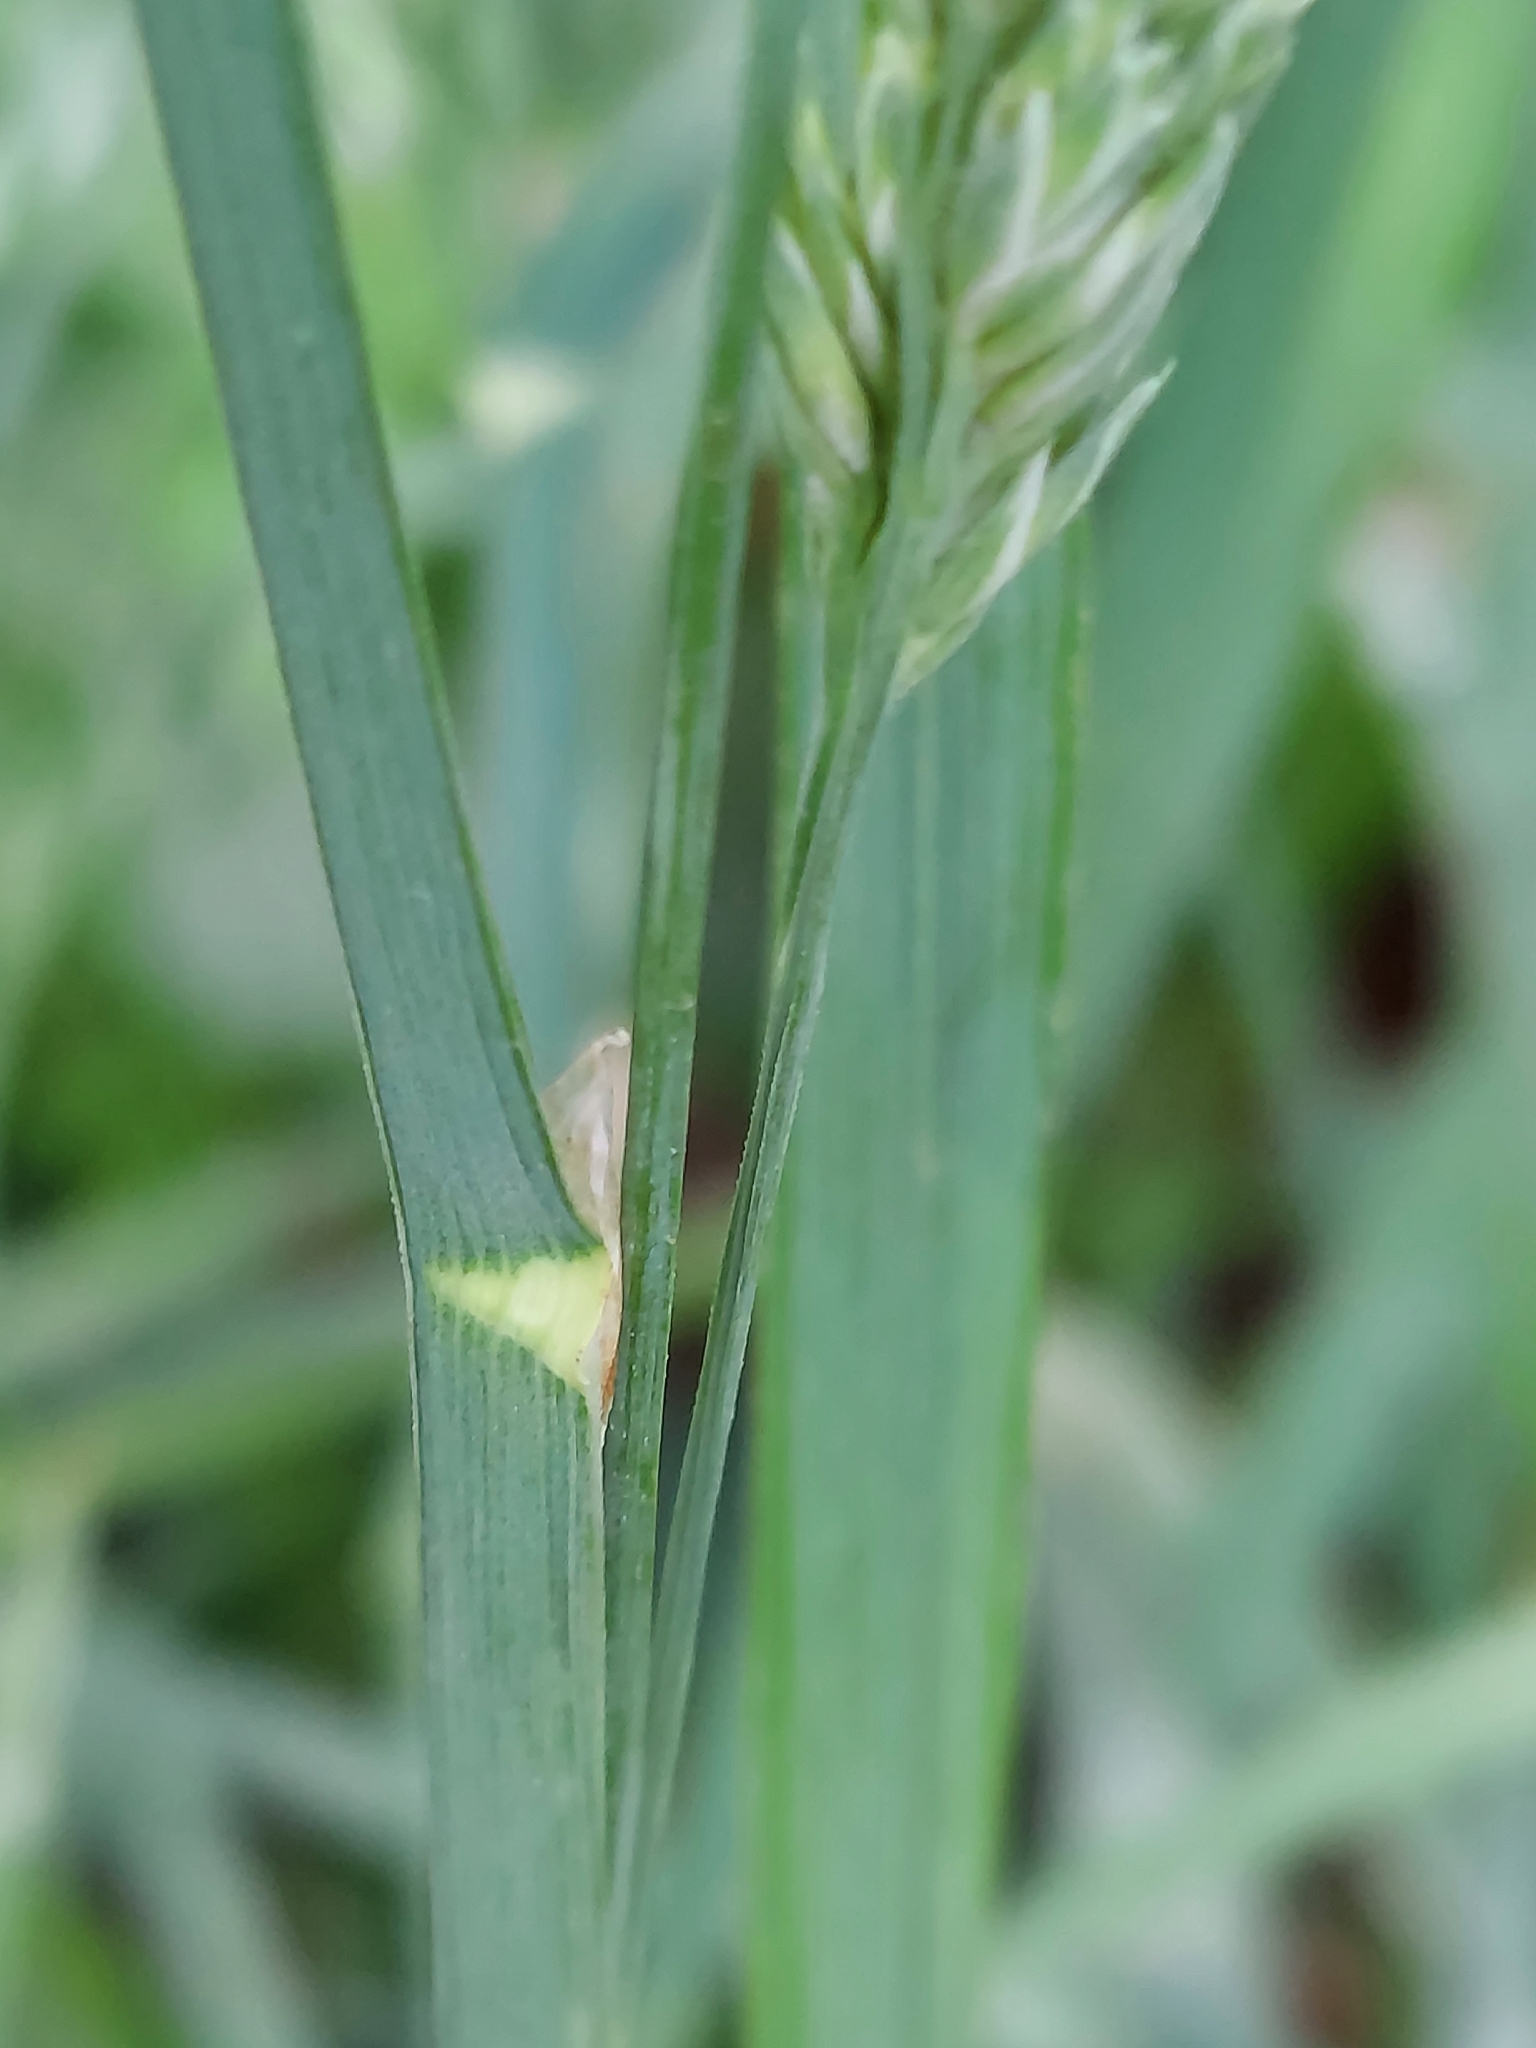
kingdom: Plantae
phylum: Tracheophyta
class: Liliopsida
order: Poales
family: Poaceae
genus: Dactylis
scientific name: Dactylis glomerata
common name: Orchardgrass
